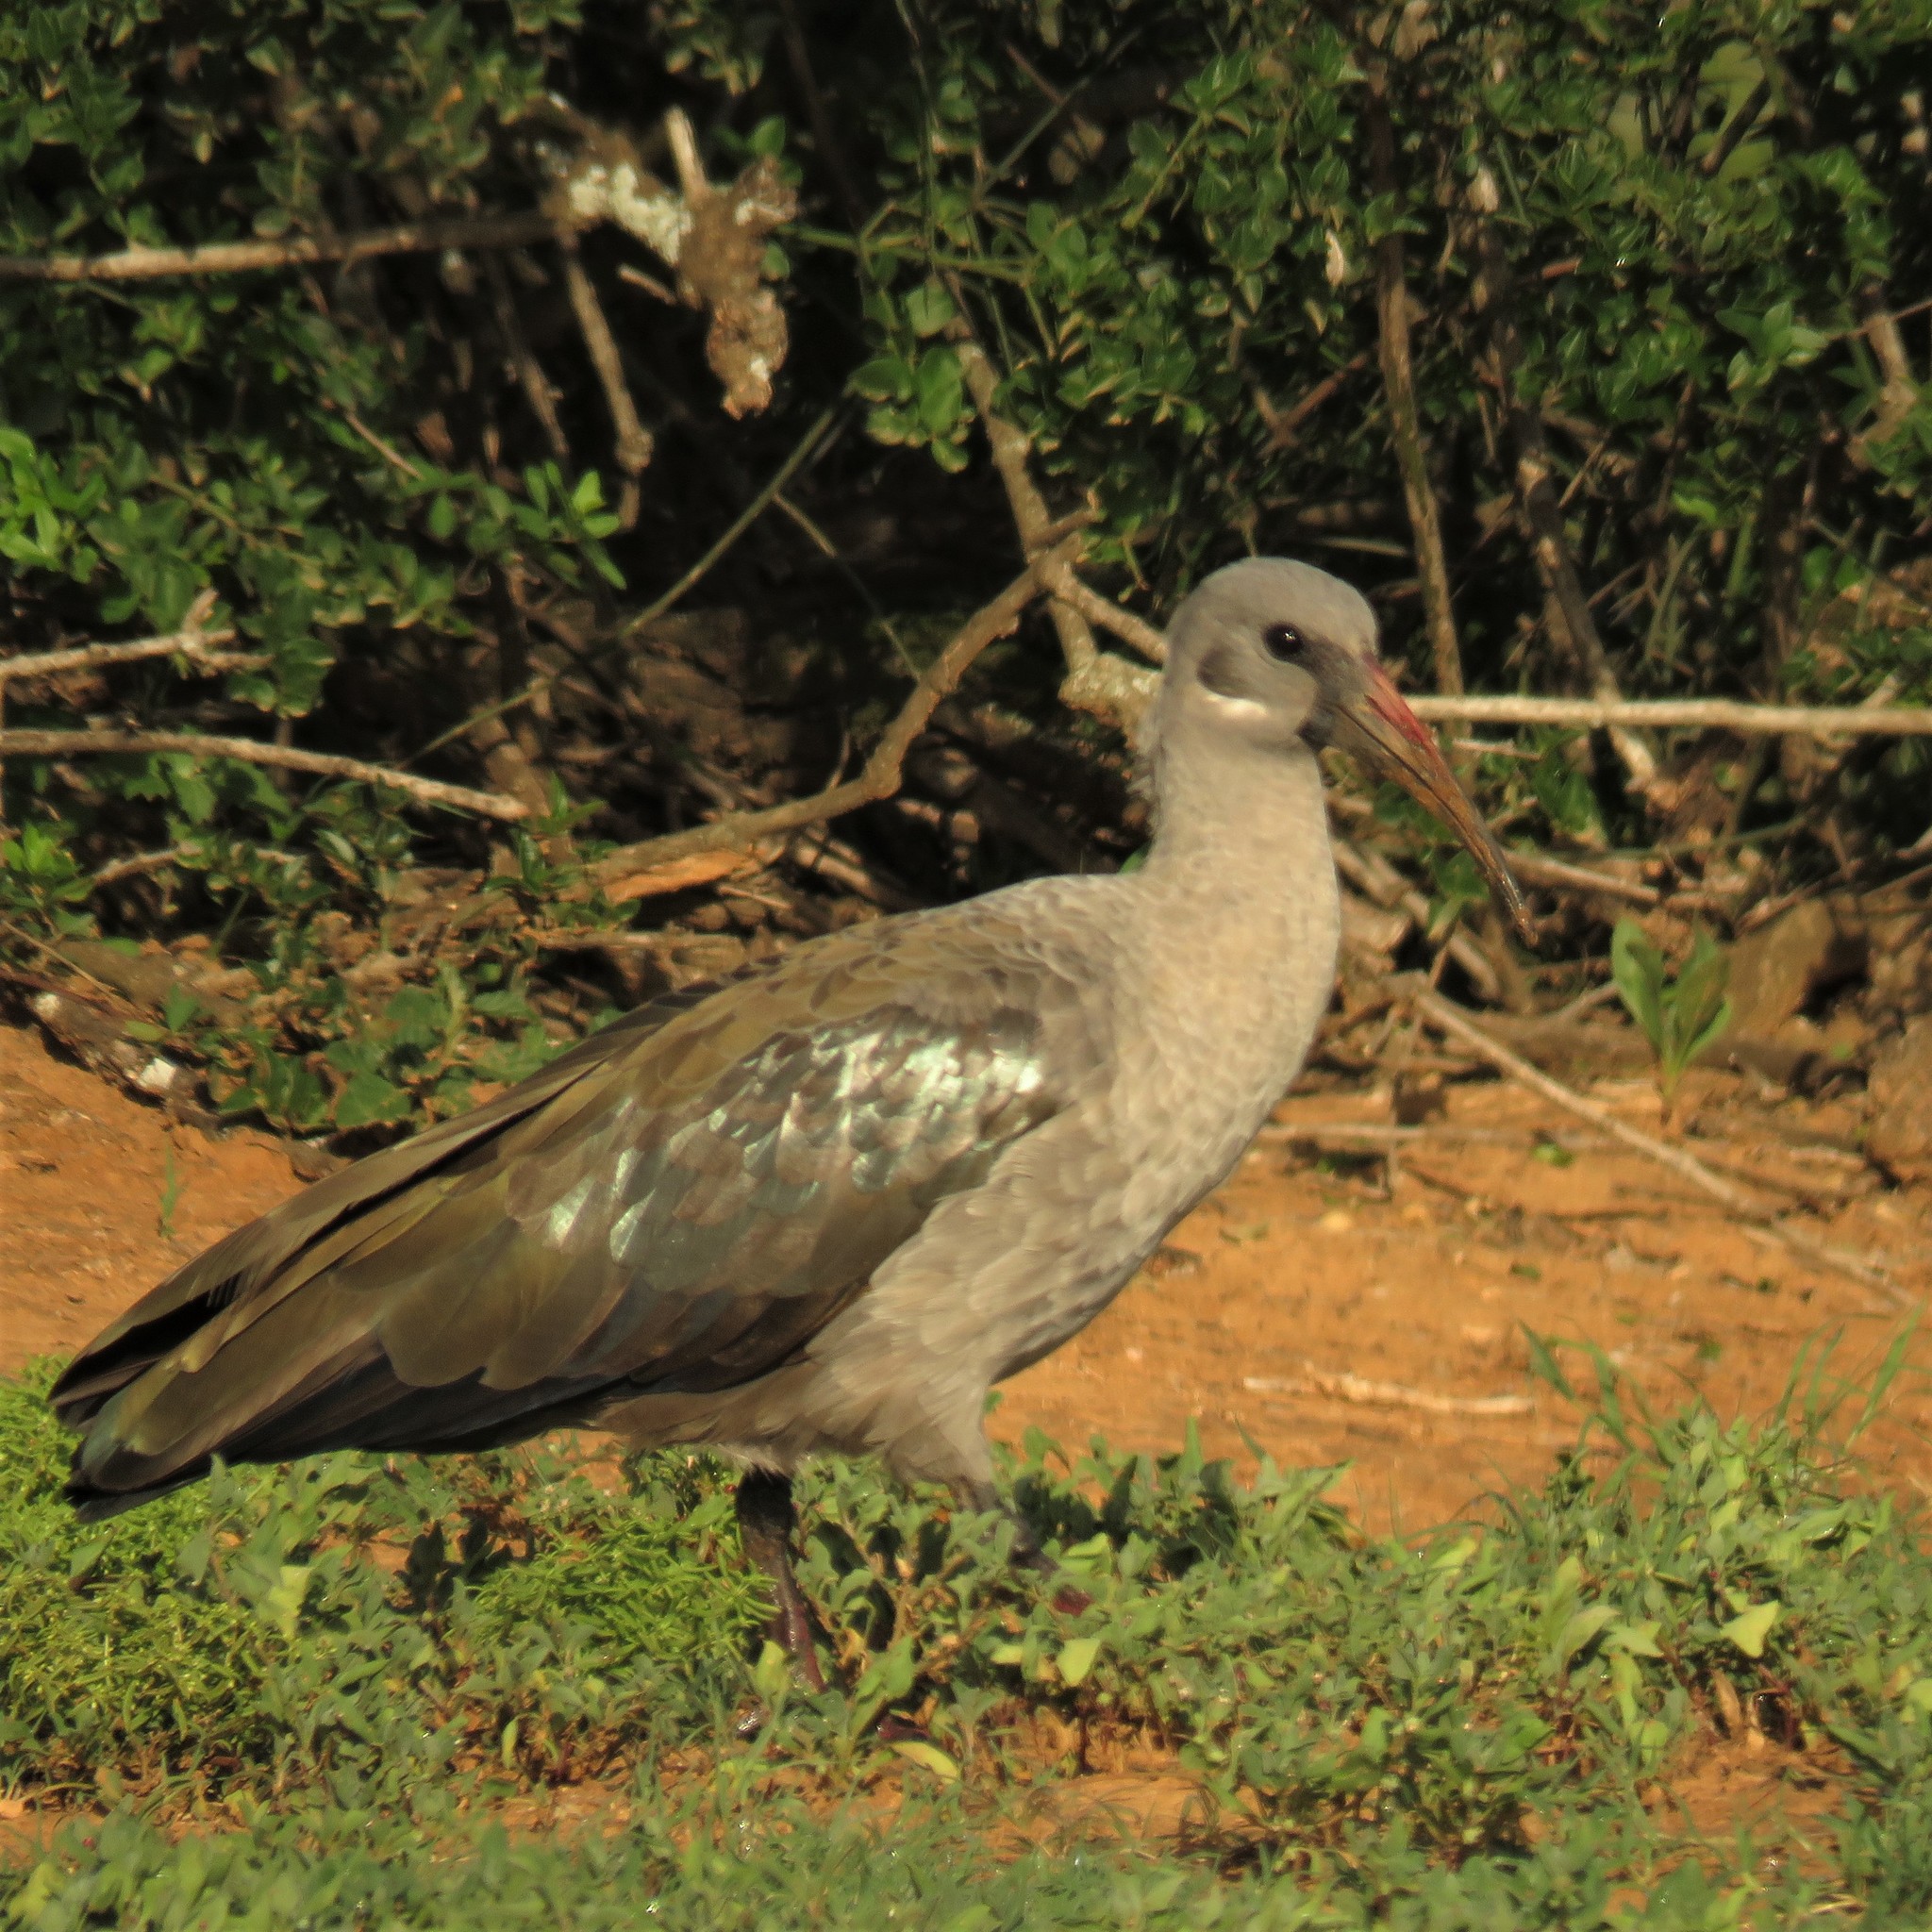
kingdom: Animalia
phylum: Chordata
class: Aves
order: Pelecaniformes
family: Threskiornithidae
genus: Bostrychia
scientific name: Bostrychia hagedash
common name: Hadada ibis
